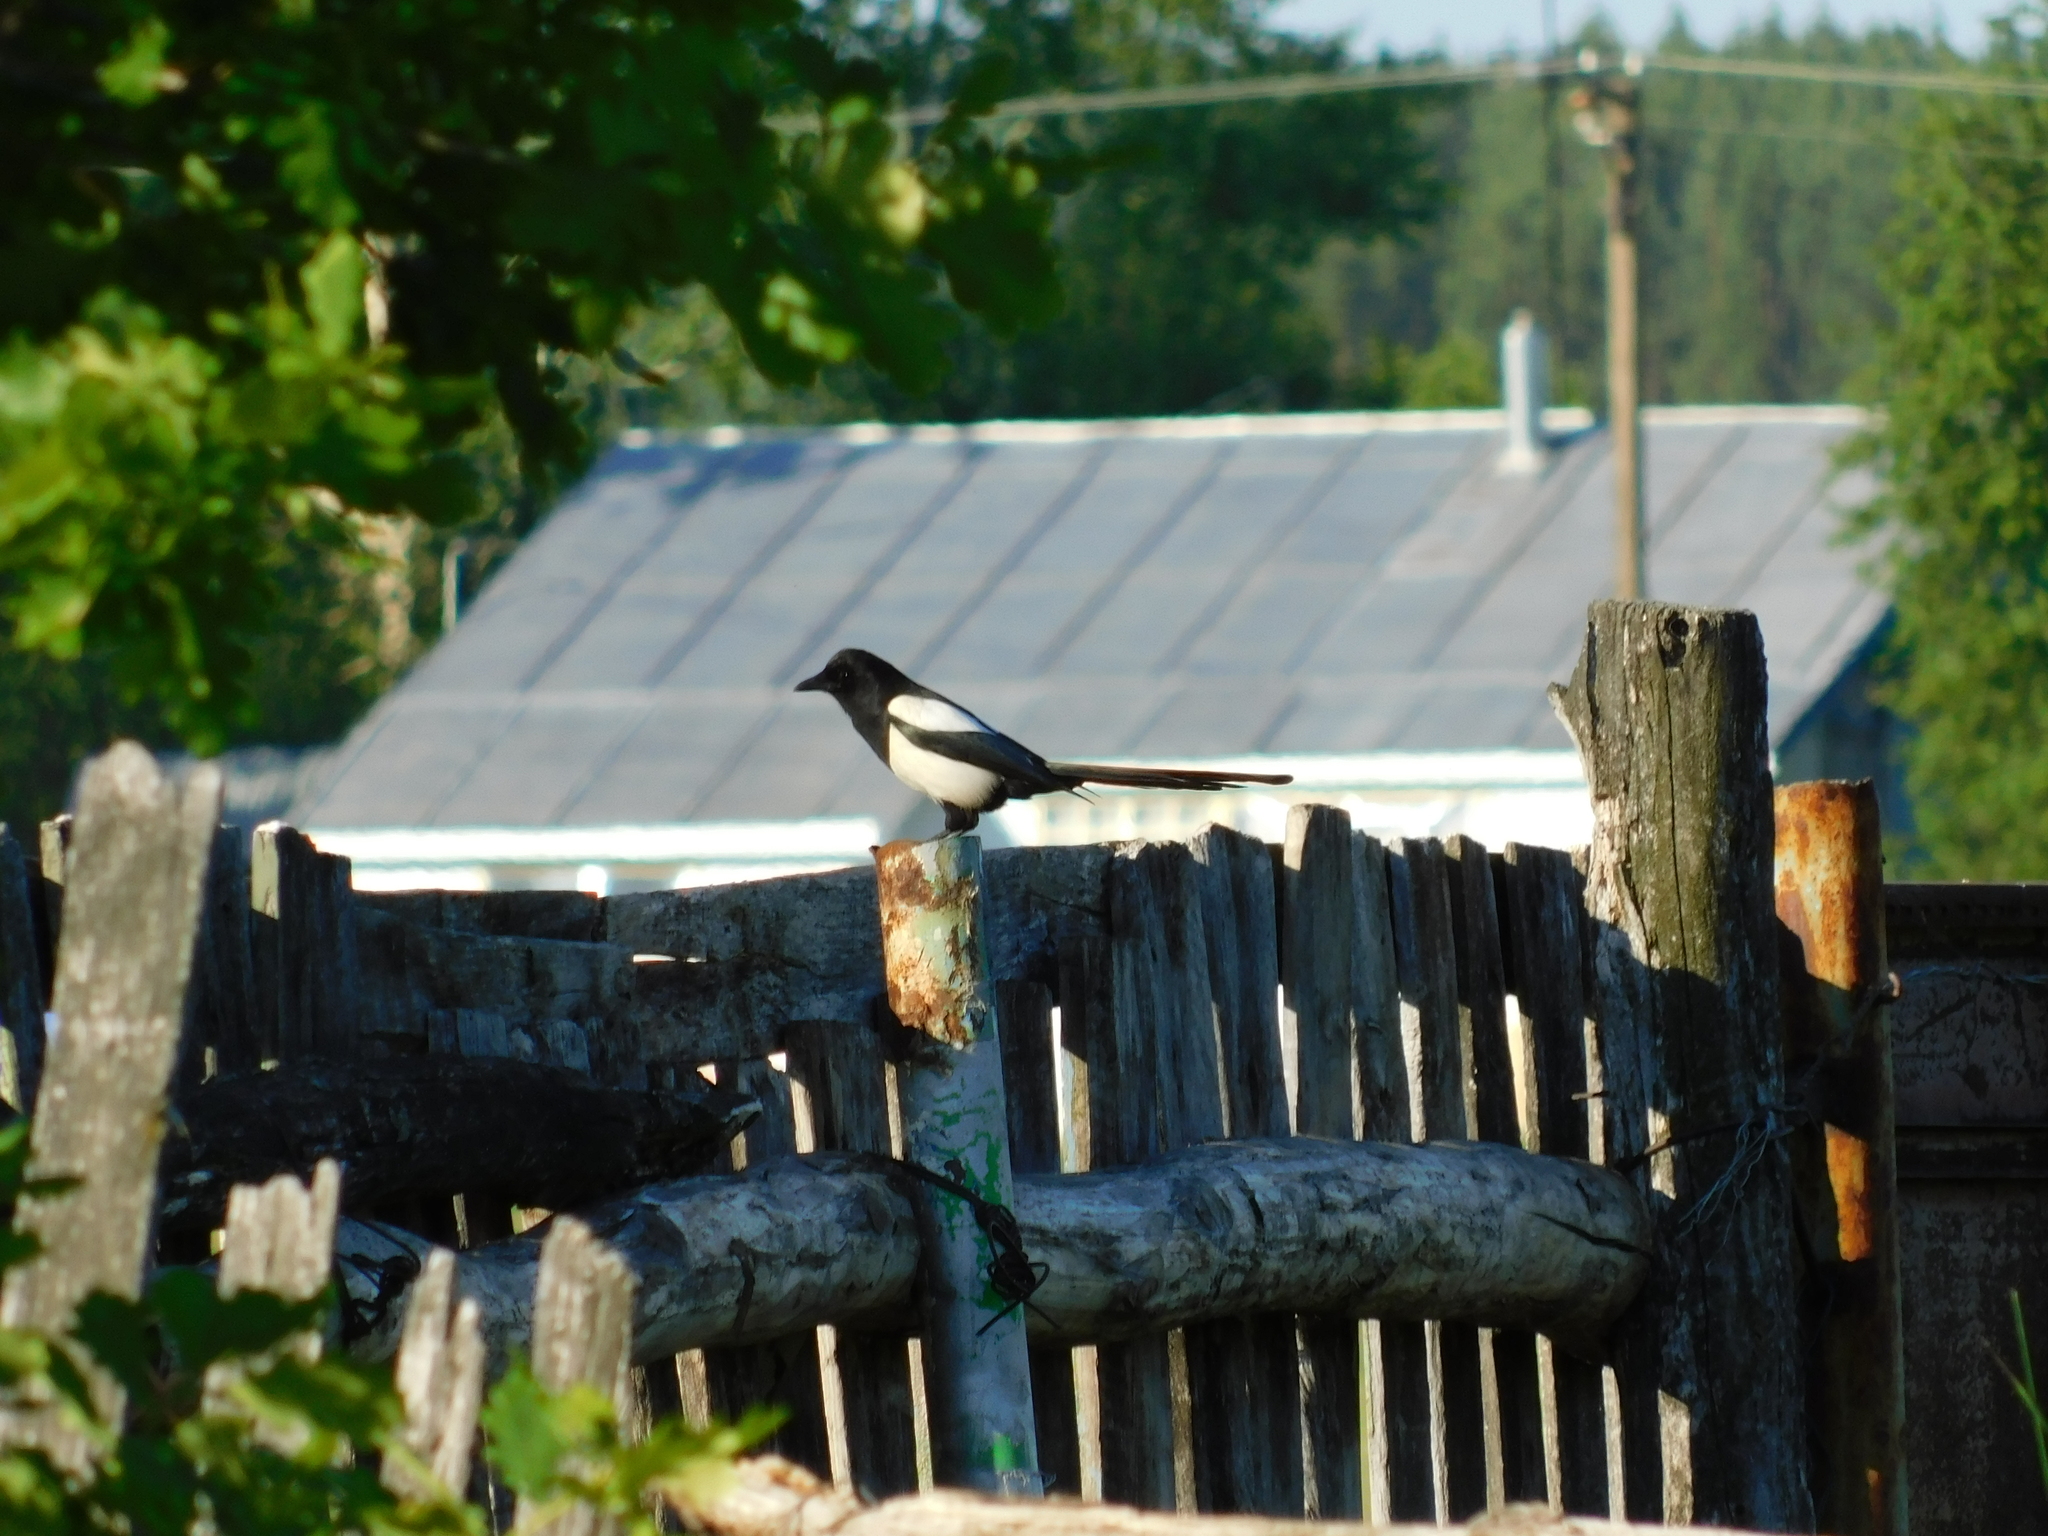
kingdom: Animalia
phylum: Chordata
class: Aves
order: Passeriformes
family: Corvidae
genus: Pica
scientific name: Pica pica
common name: Eurasian magpie
